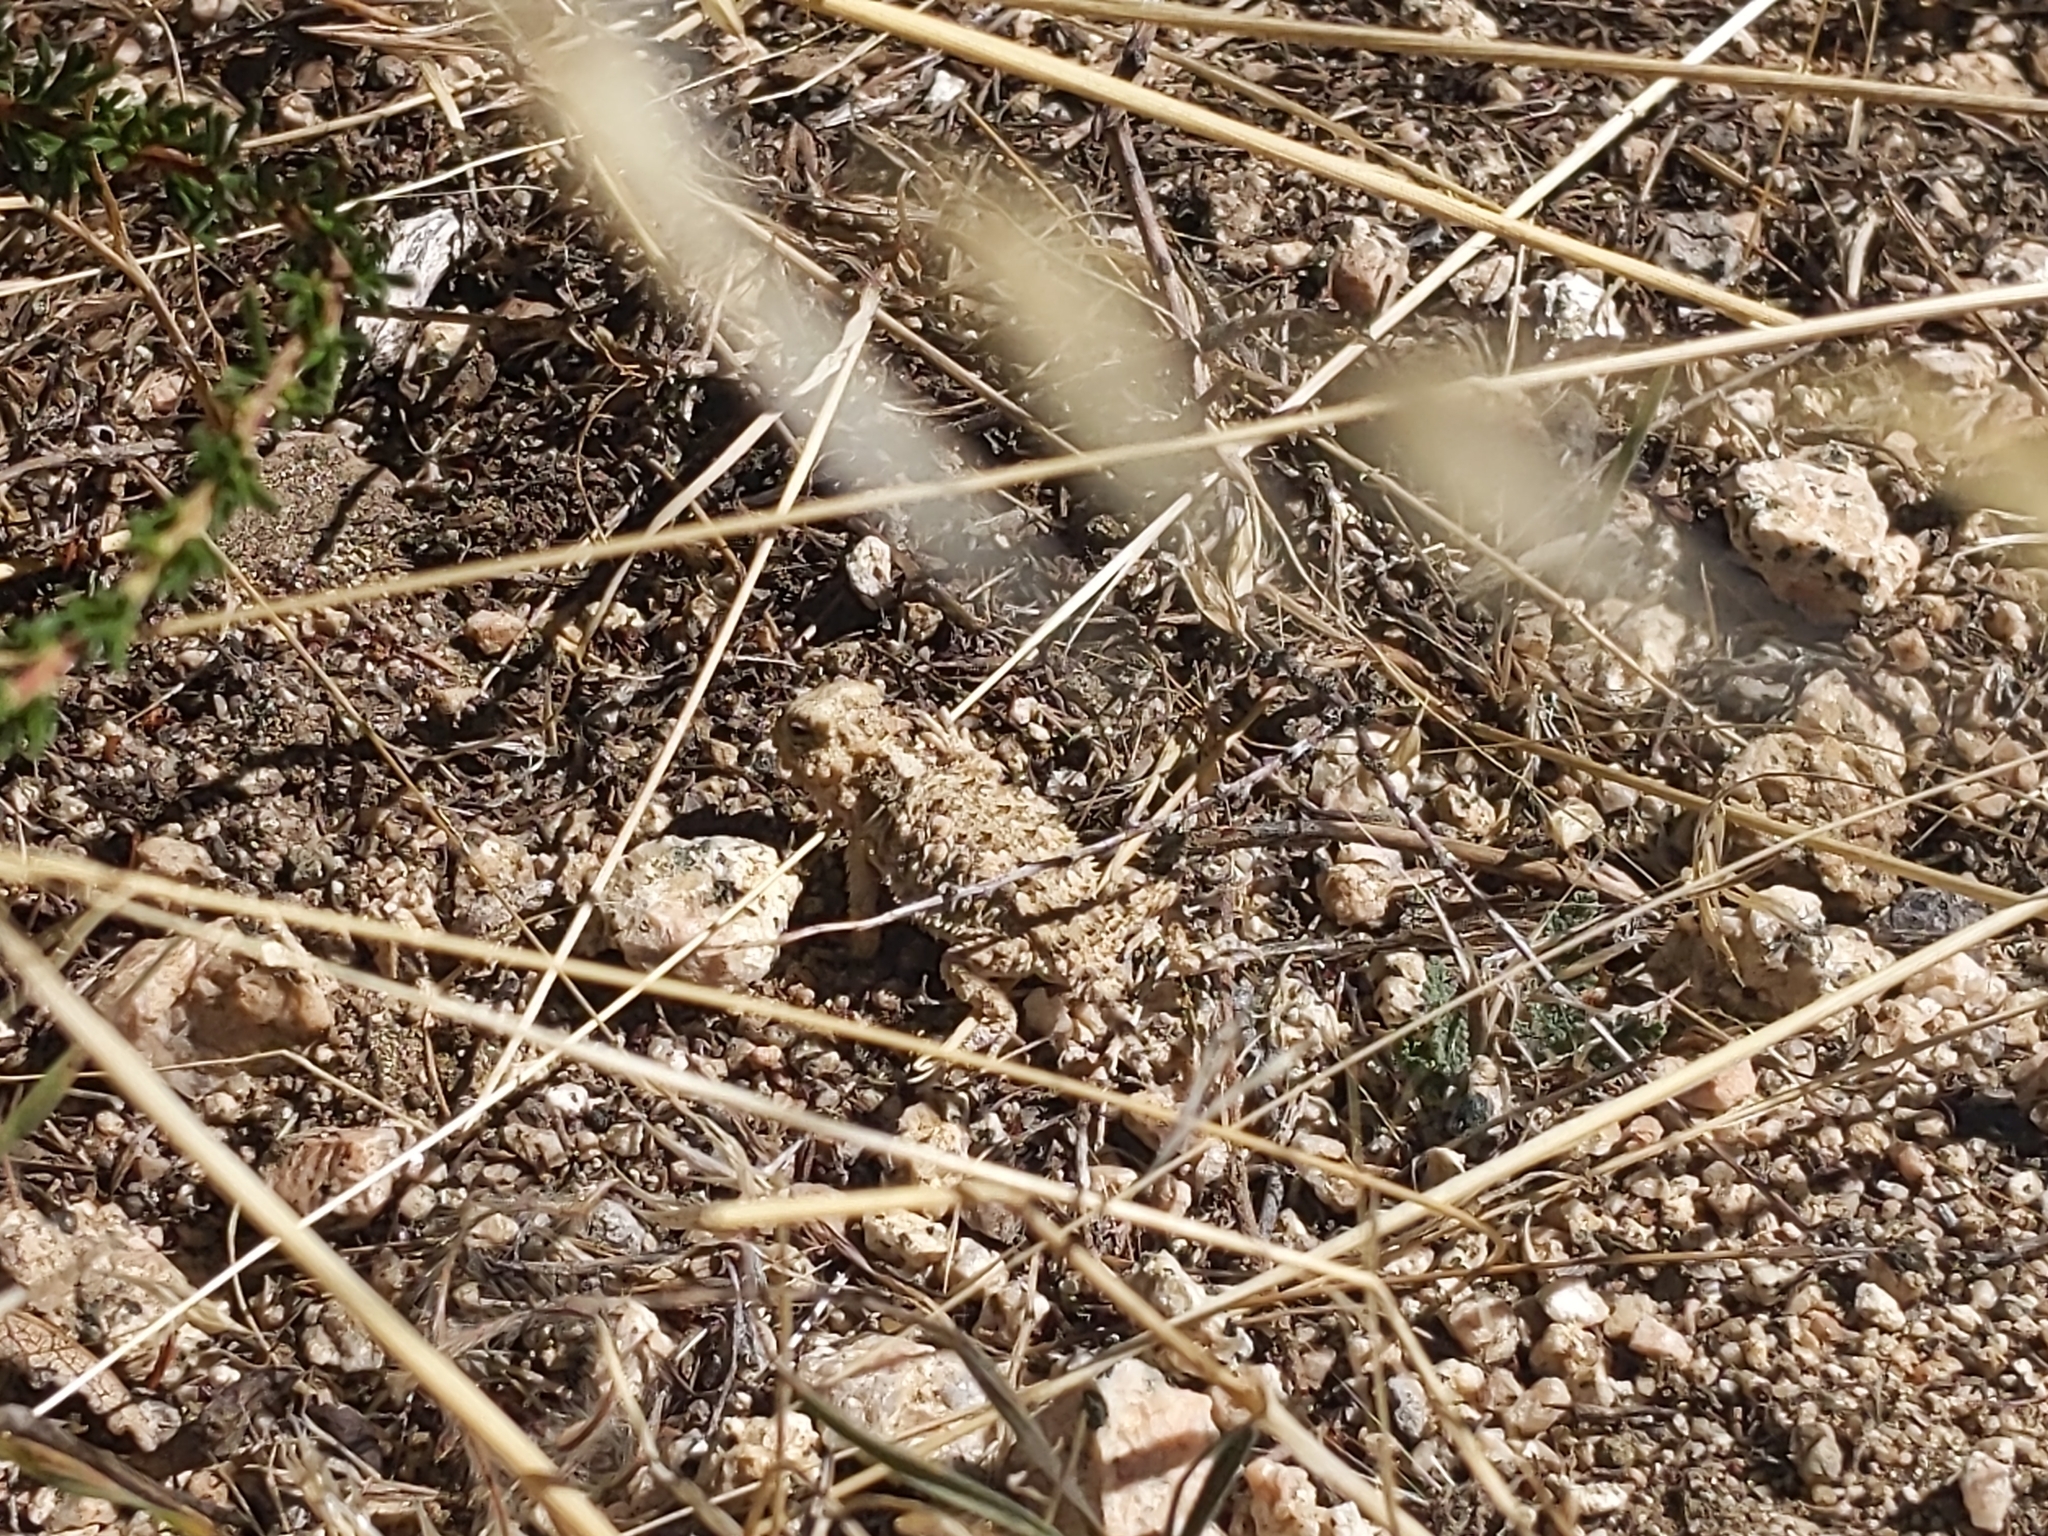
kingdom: Animalia
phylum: Chordata
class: Squamata
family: Phrynosomatidae
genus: Phrynosoma
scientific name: Phrynosoma blainvillii
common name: San diego horned lizard
